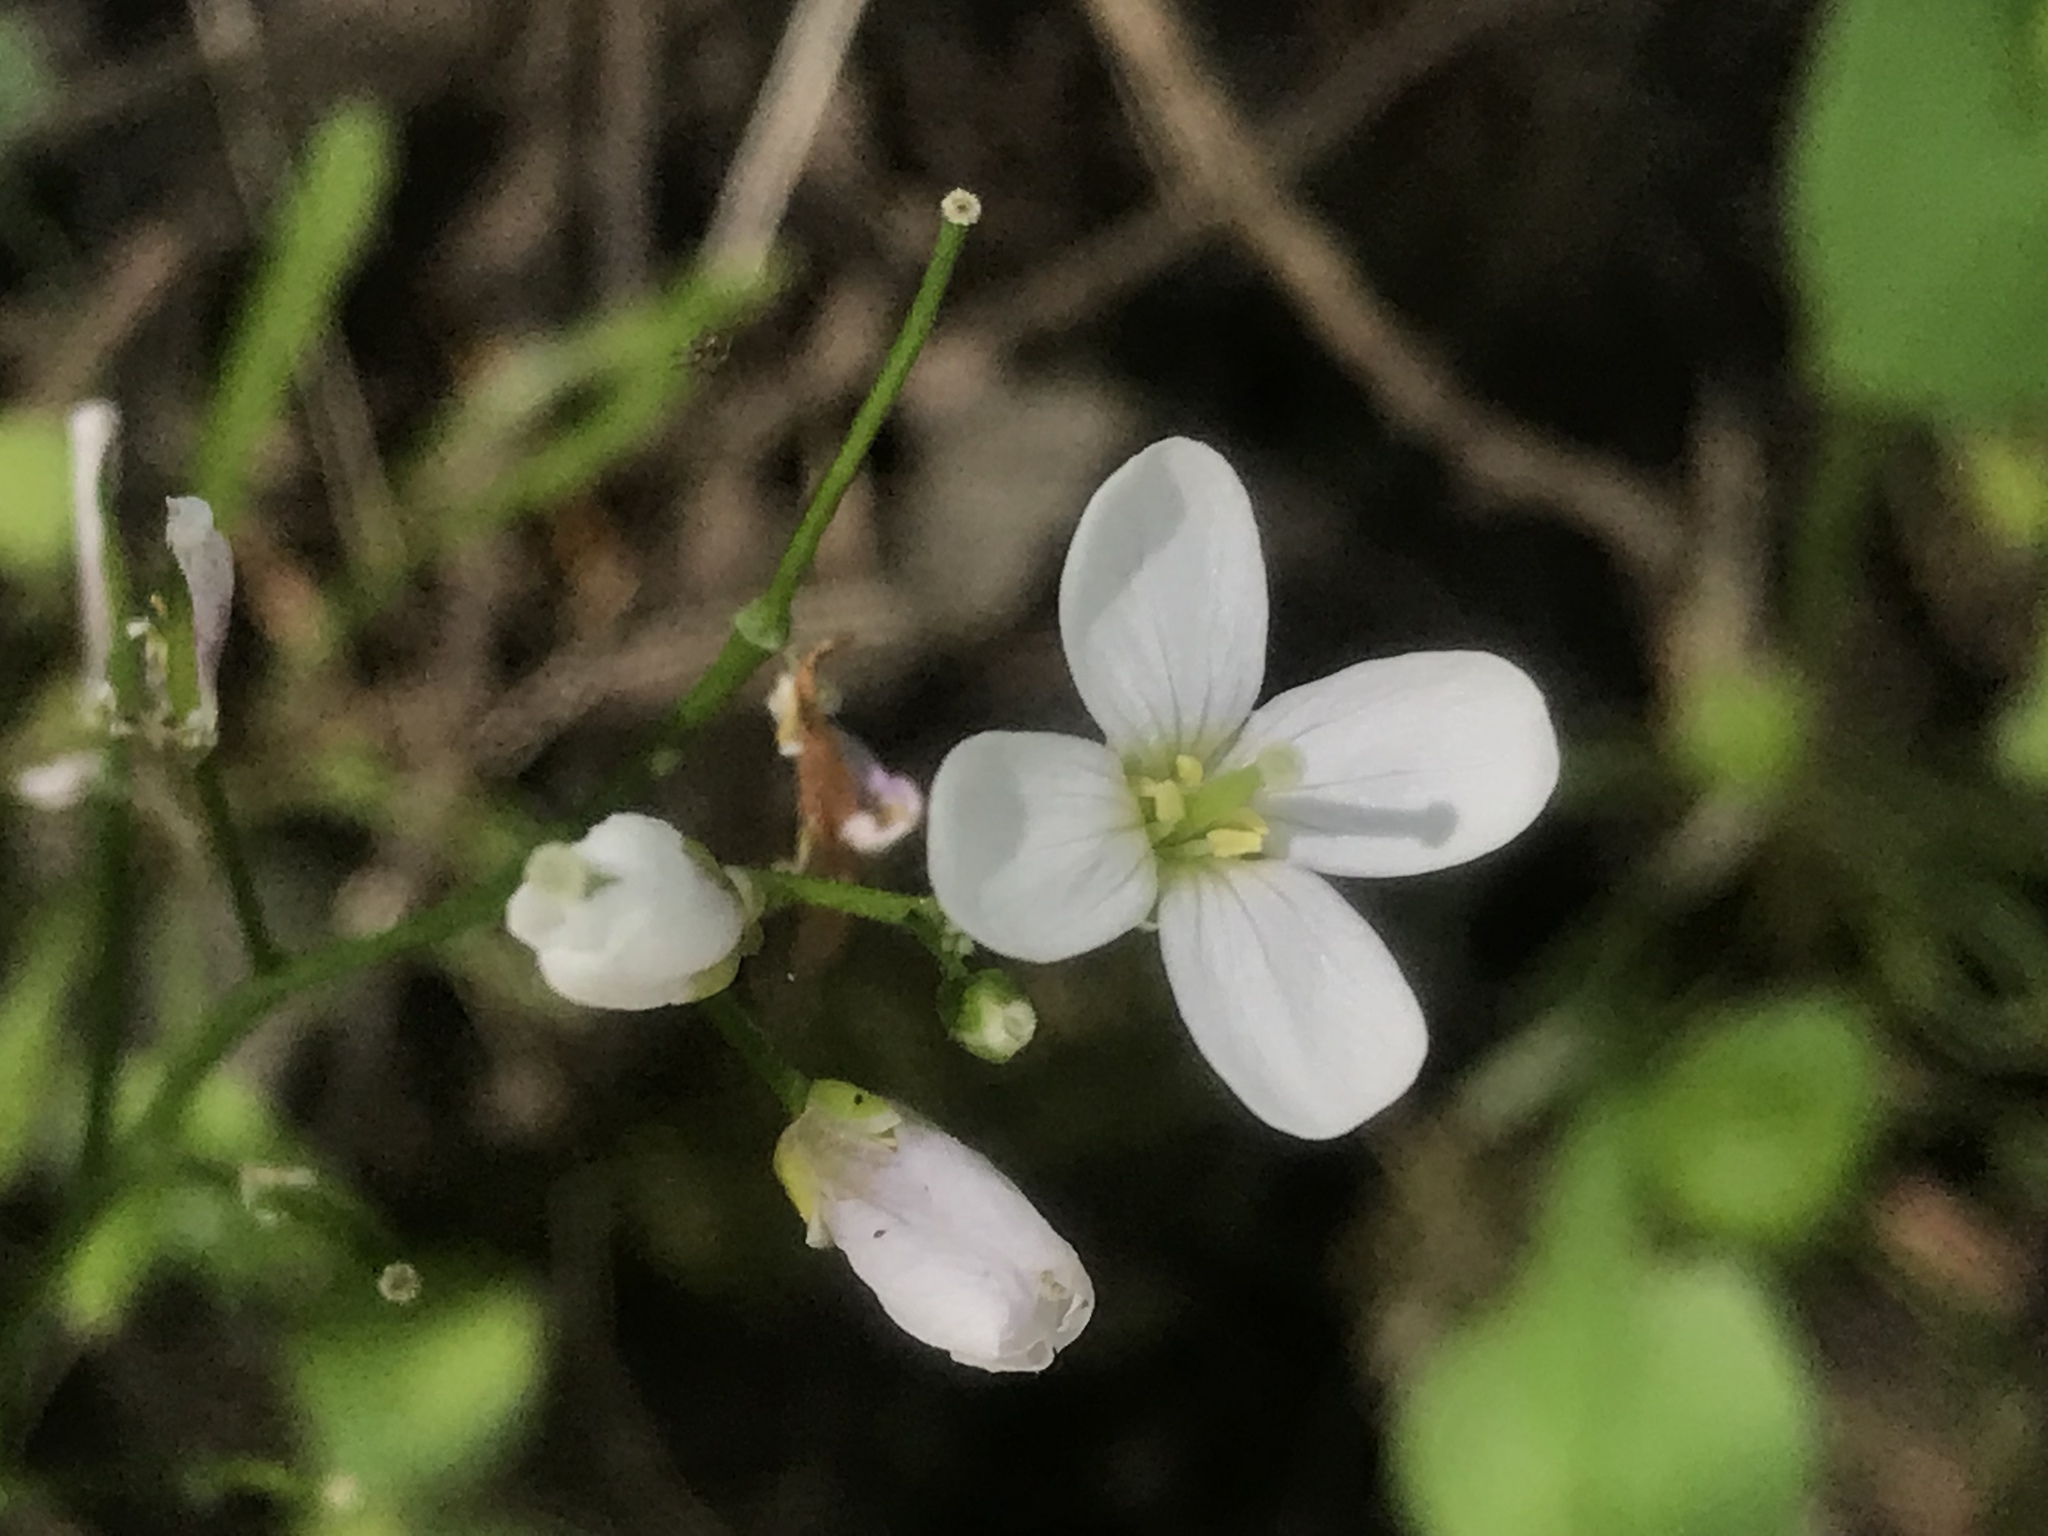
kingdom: Plantae
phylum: Tracheophyta
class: Magnoliopsida
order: Brassicales
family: Brassicaceae
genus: Cardamine
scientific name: Cardamine californica
